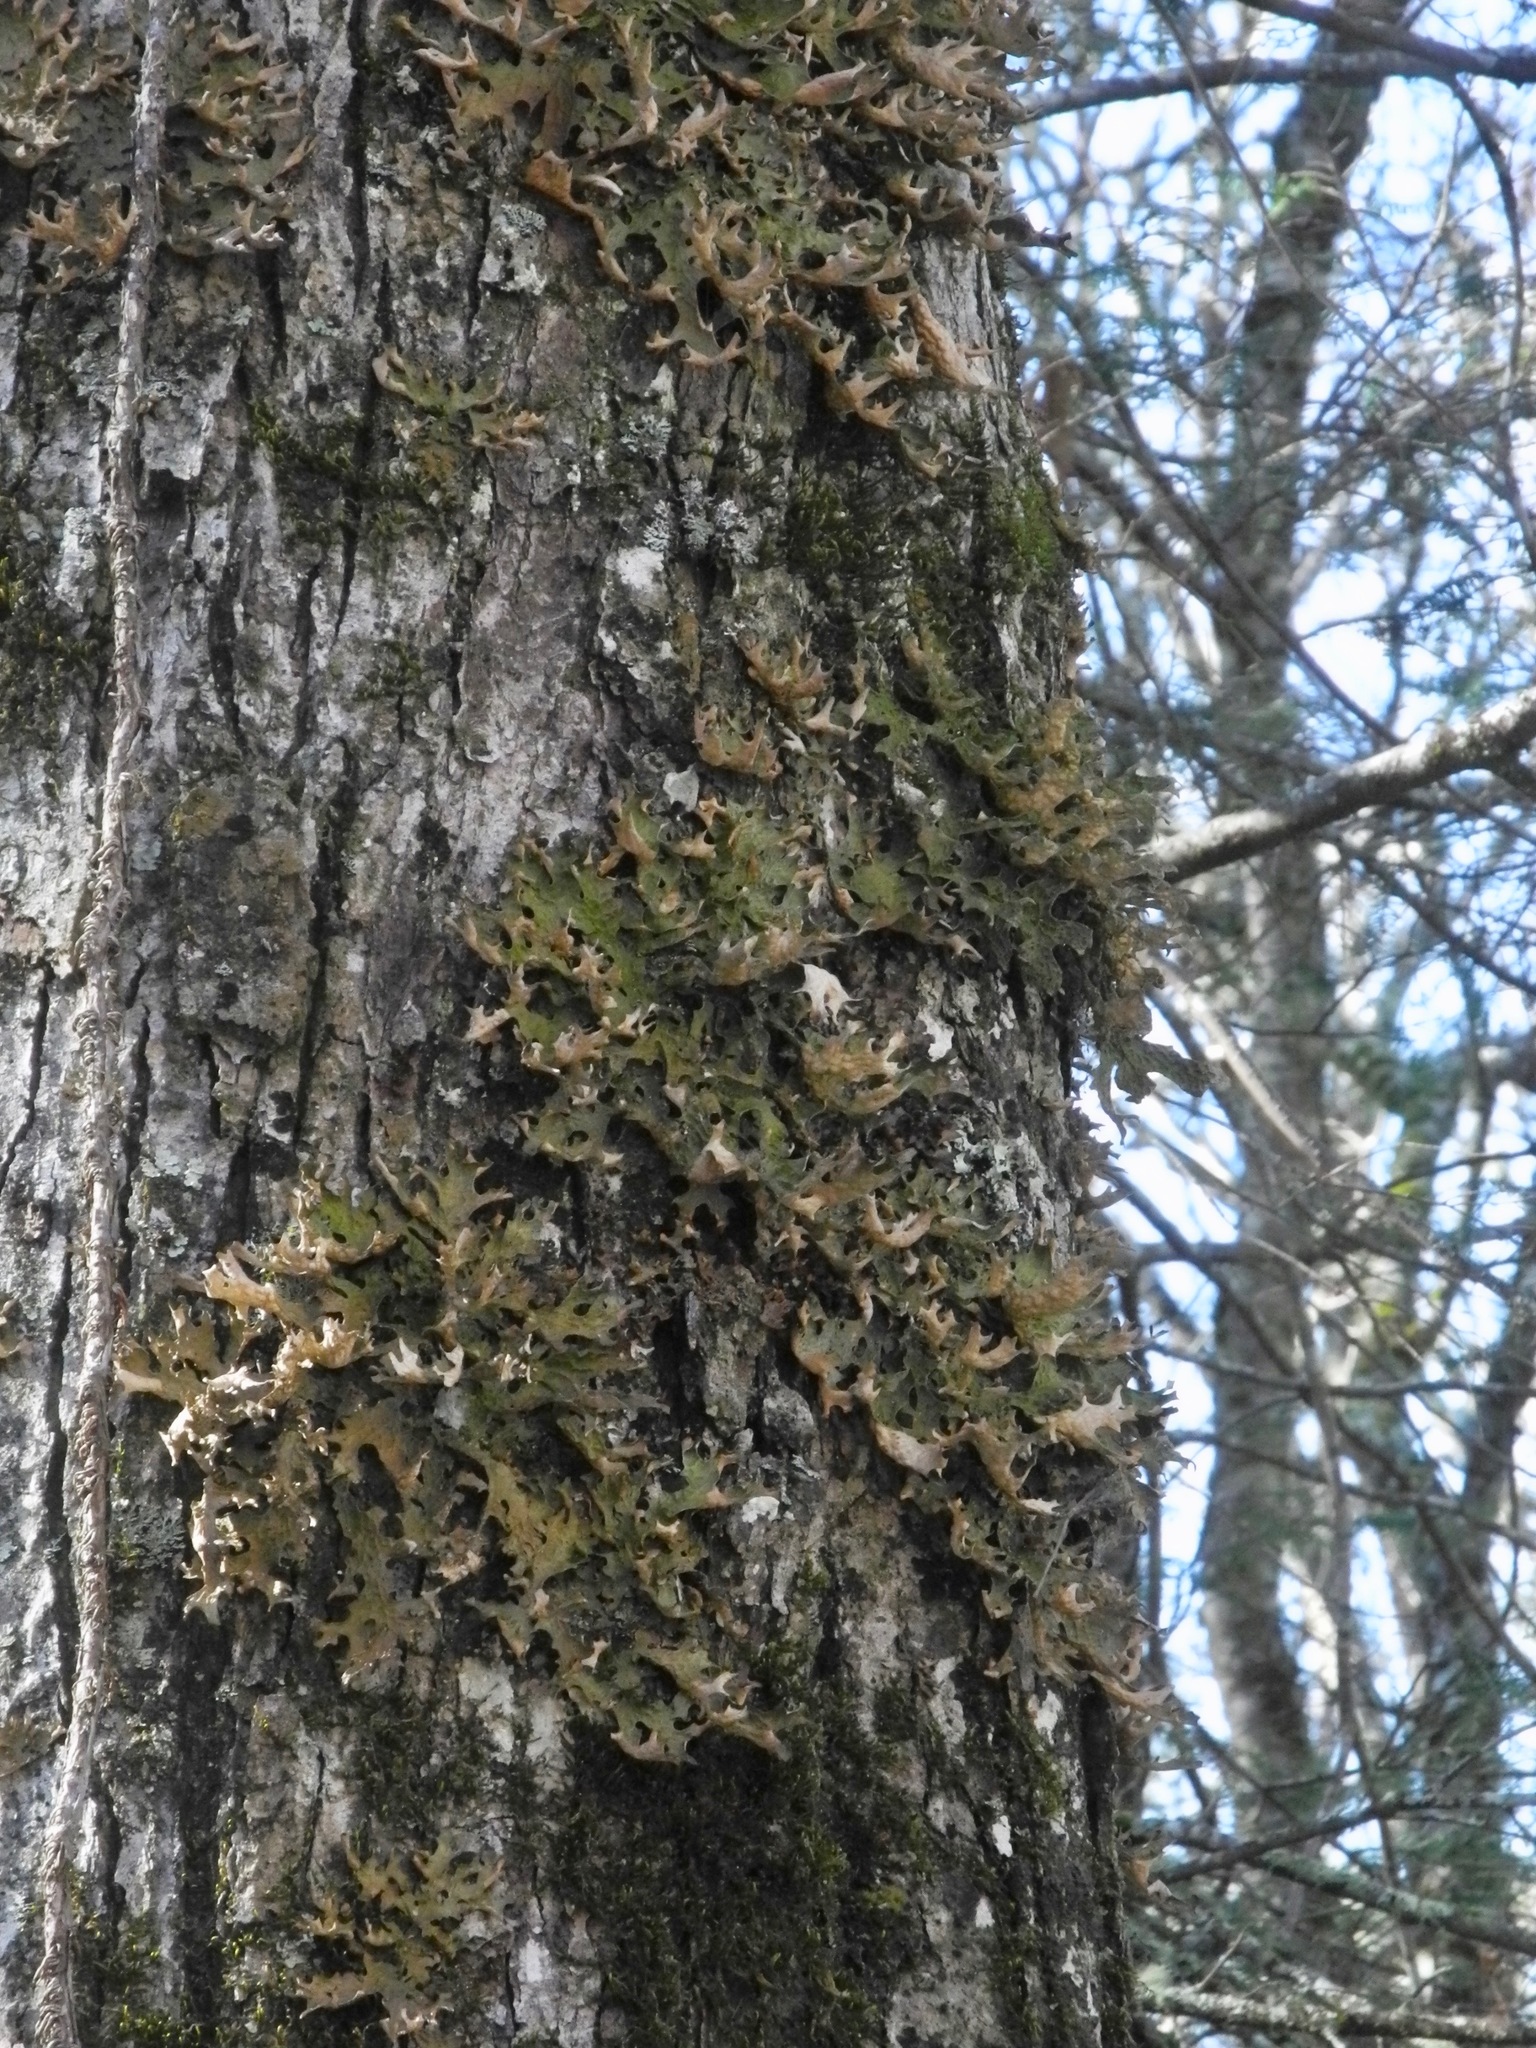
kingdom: Fungi
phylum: Ascomycota
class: Lecanoromycetes
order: Peltigerales
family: Lobariaceae
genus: Lobaria
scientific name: Lobaria pulmonaria
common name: Lungwort
